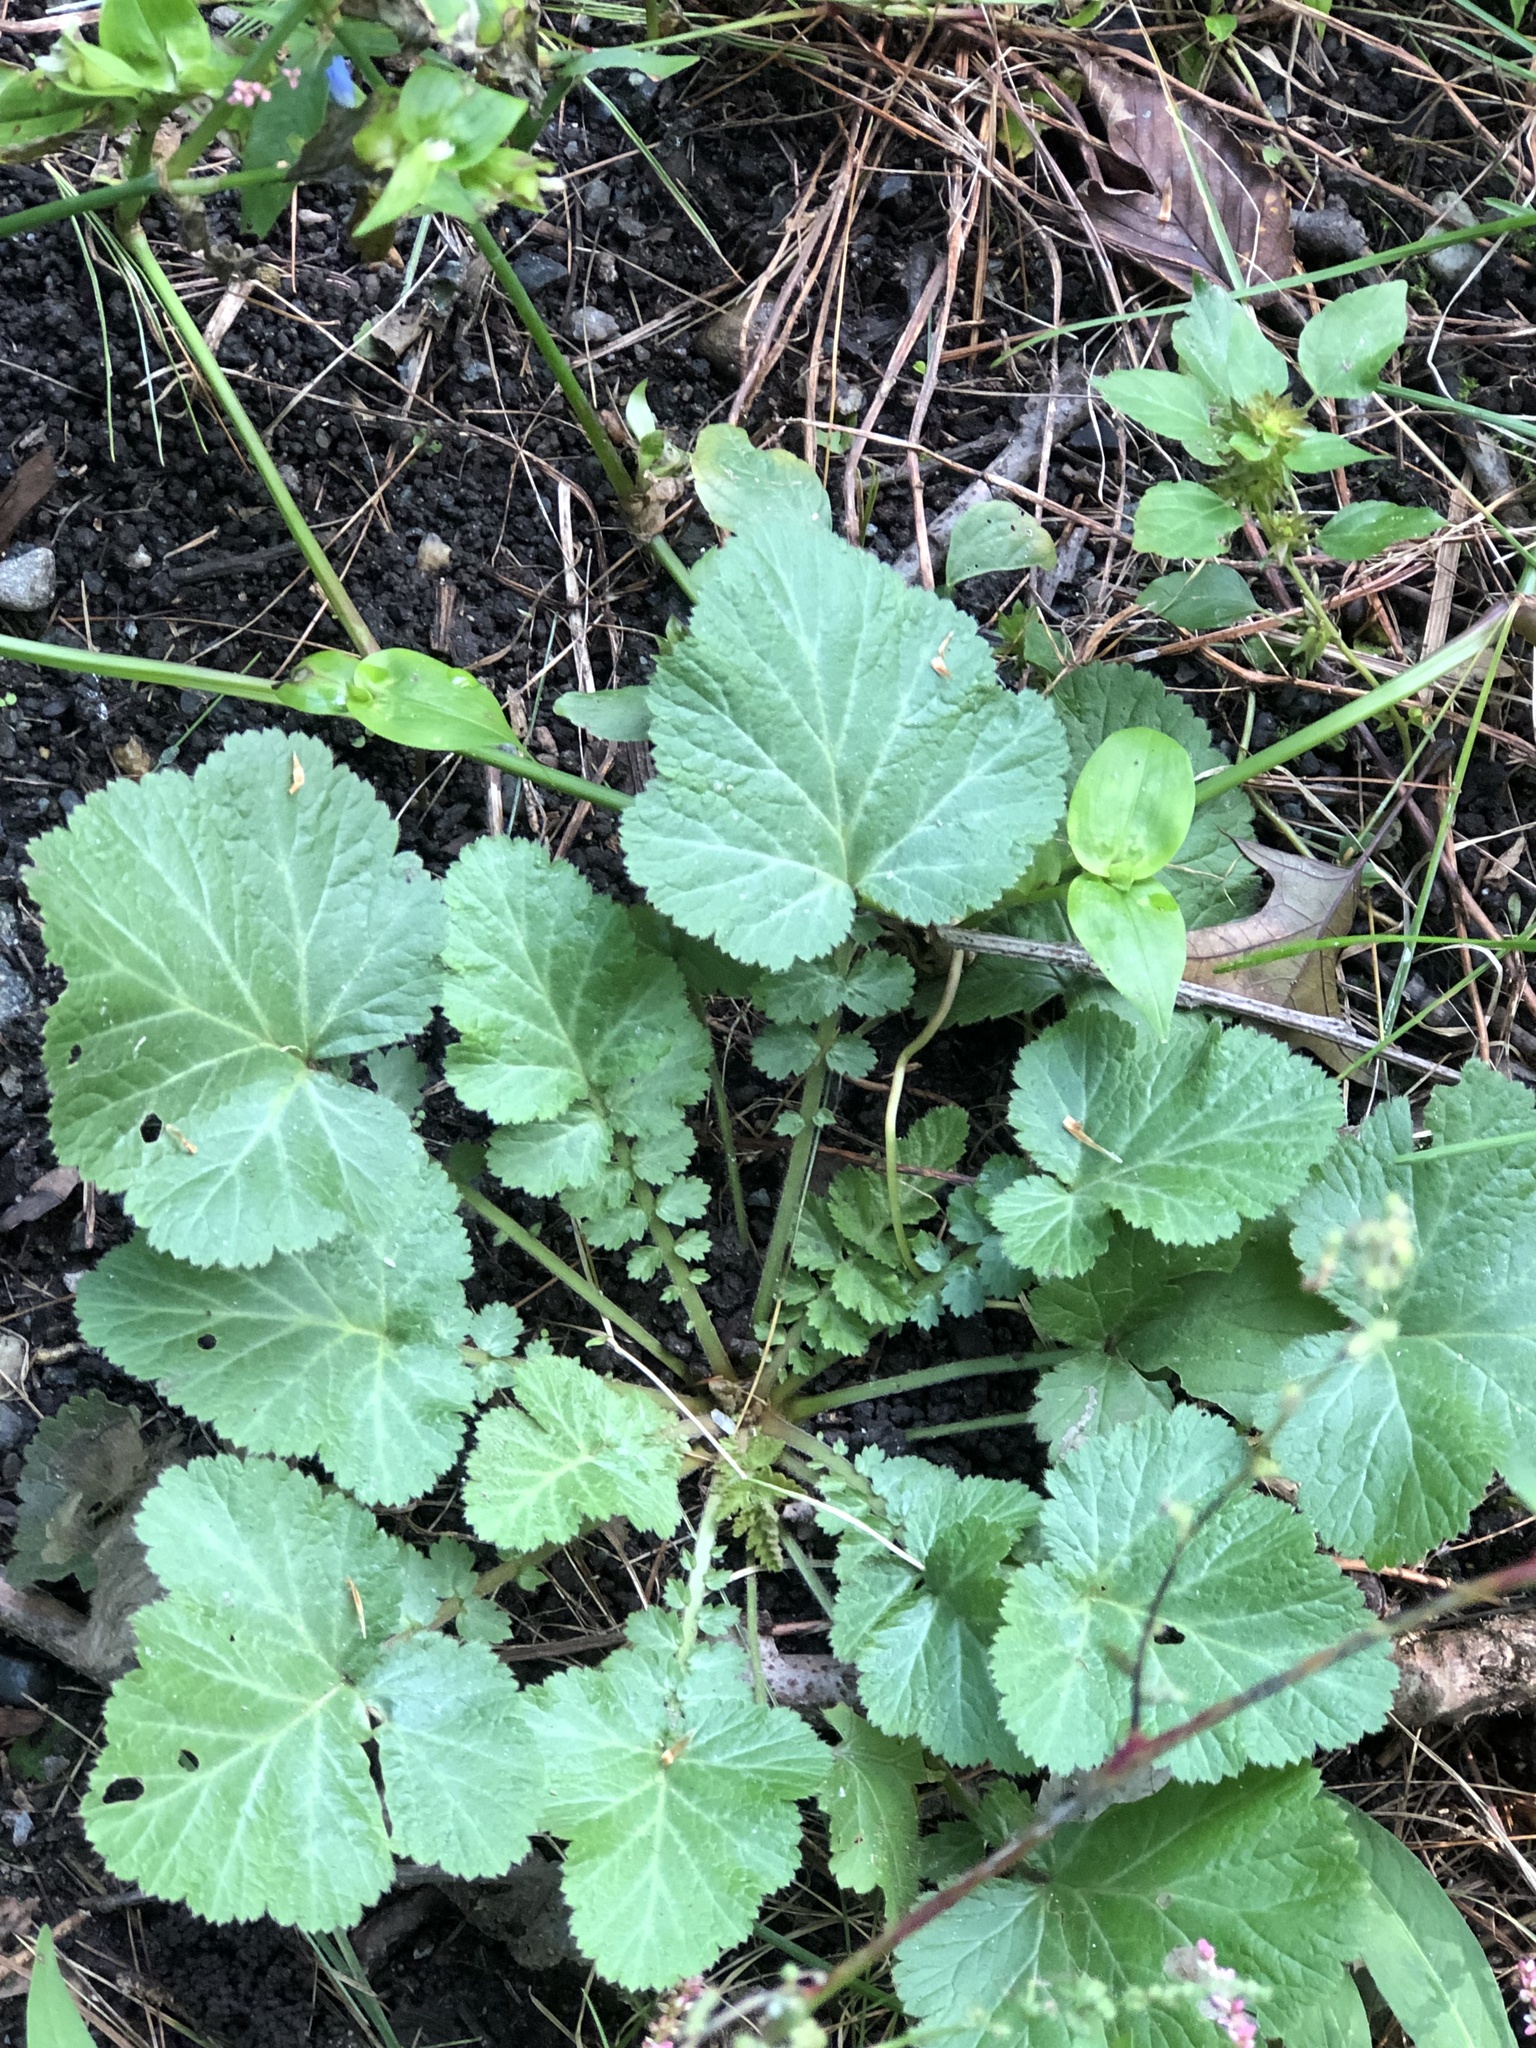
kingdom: Plantae
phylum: Tracheophyta
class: Magnoliopsida
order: Rosales
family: Rosaceae
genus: Geum
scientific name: Geum canadense
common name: White avens
